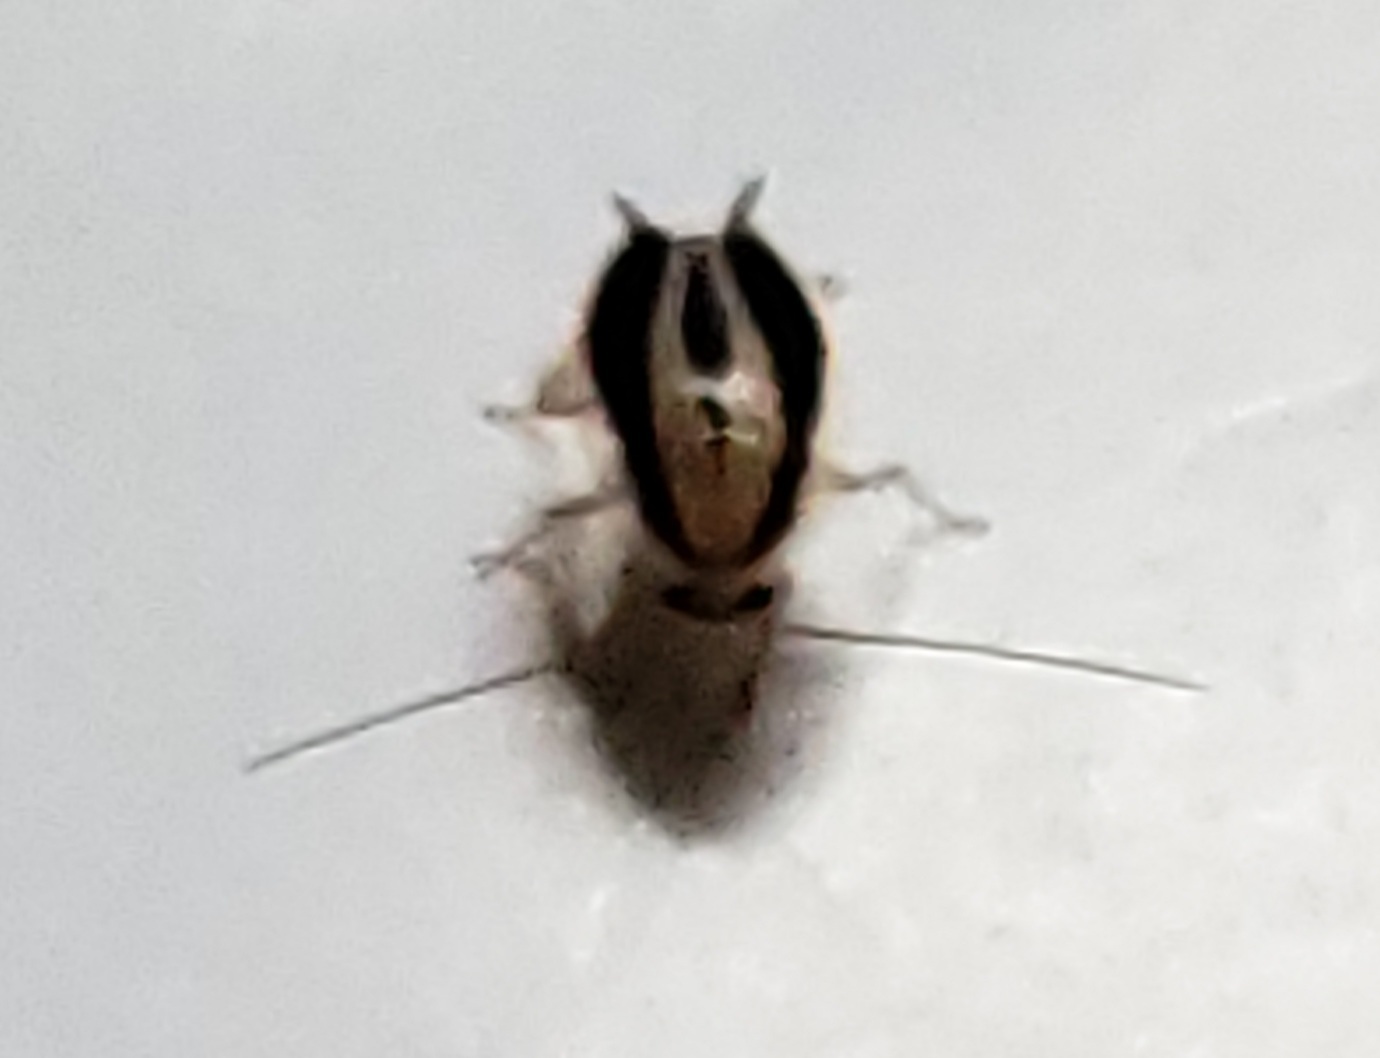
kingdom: Animalia
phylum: Arthropoda
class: Insecta
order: Blattodea
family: Ectobiidae
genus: Luridiblatta
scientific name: Luridiblatta trivittata
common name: Three-lined cockroach
